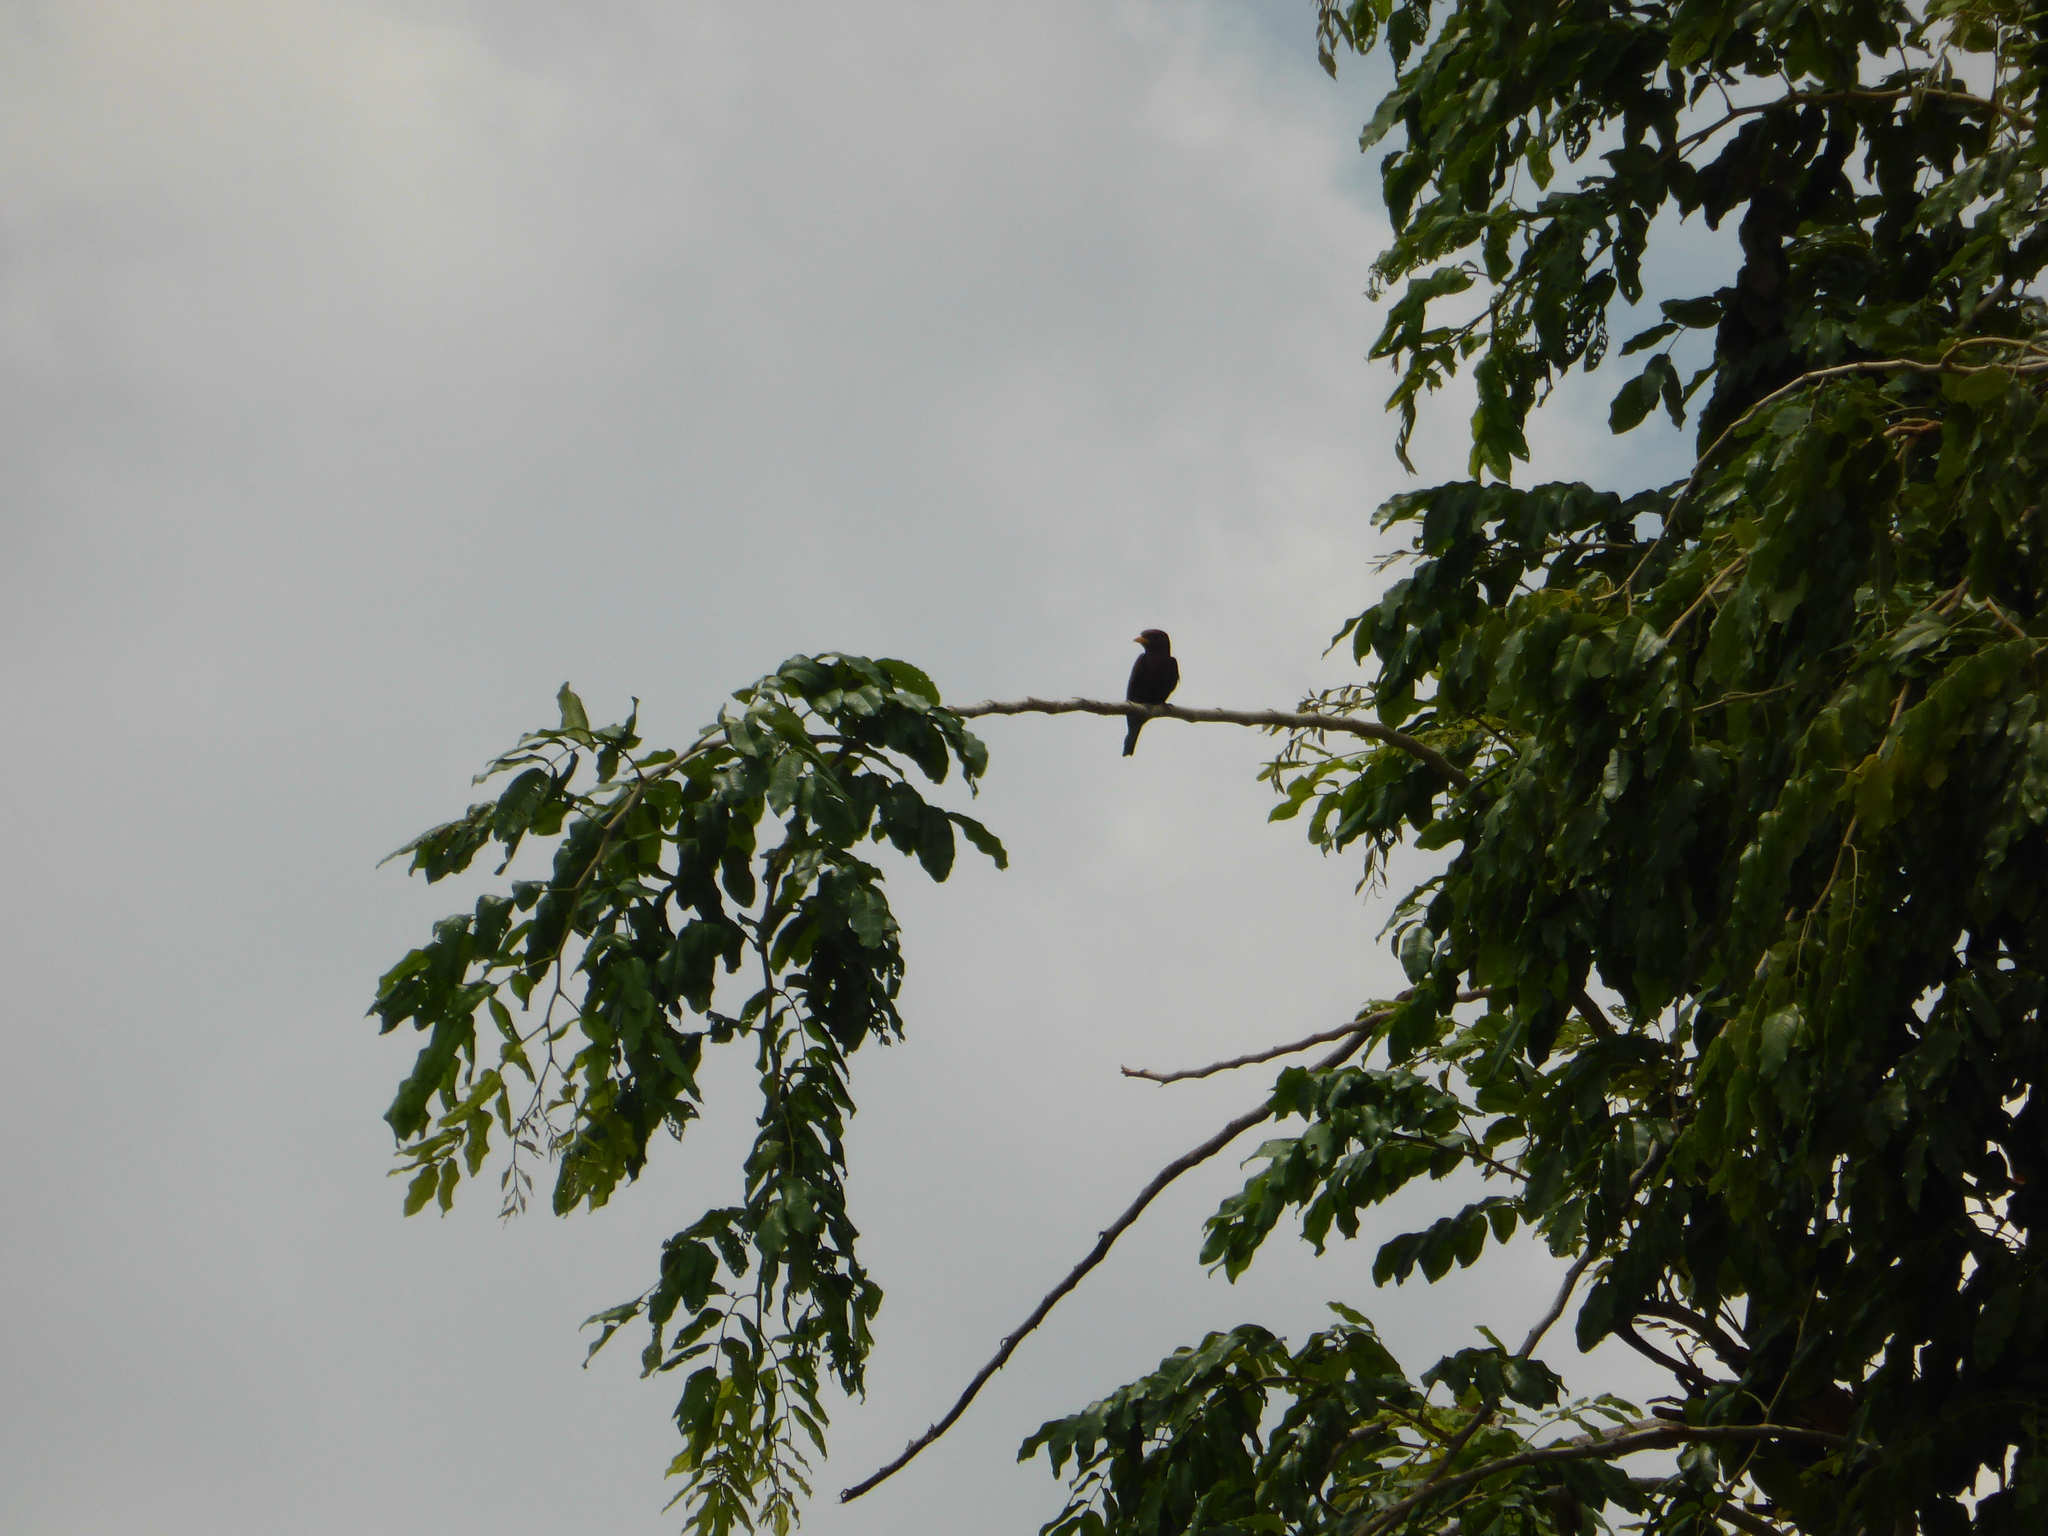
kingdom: Animalia
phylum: Chordata
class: Aves
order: Coraciiformes
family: Coraciidae
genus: Eurystomus
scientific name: Eurystomus glaucurus
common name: Broad-billed roller
